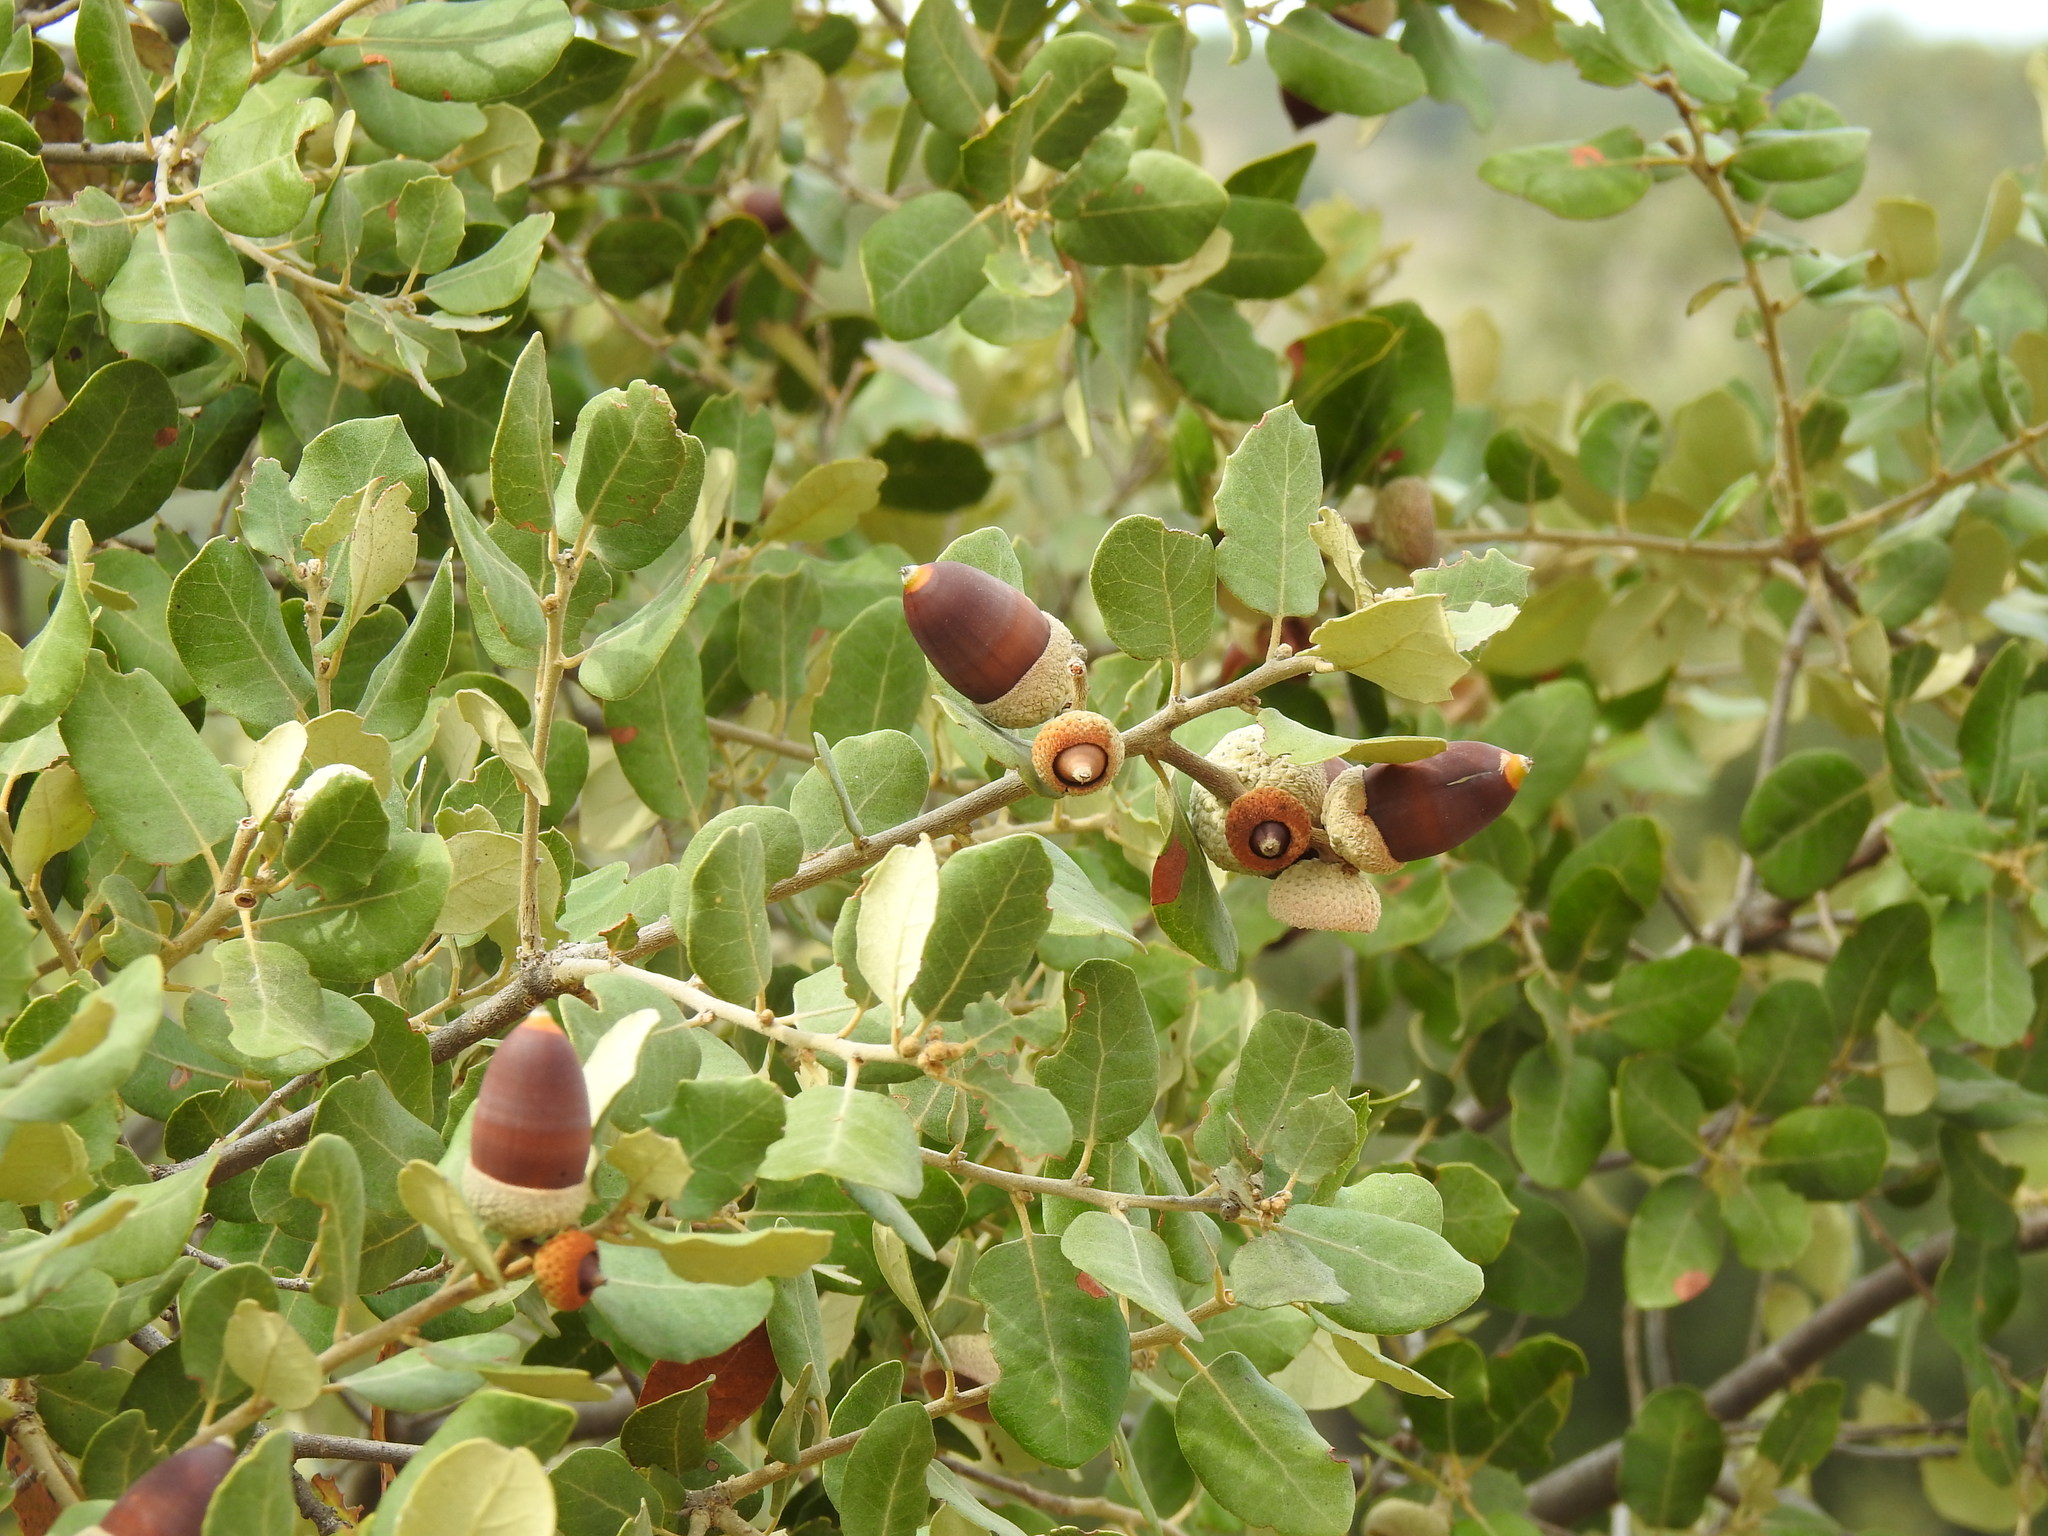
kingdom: Plantae
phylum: Tracheophyta
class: Magnoliopsida
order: Fagales
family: Fagaceae
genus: Quercus
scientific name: Quercus rotundifolia
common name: Holm oak
